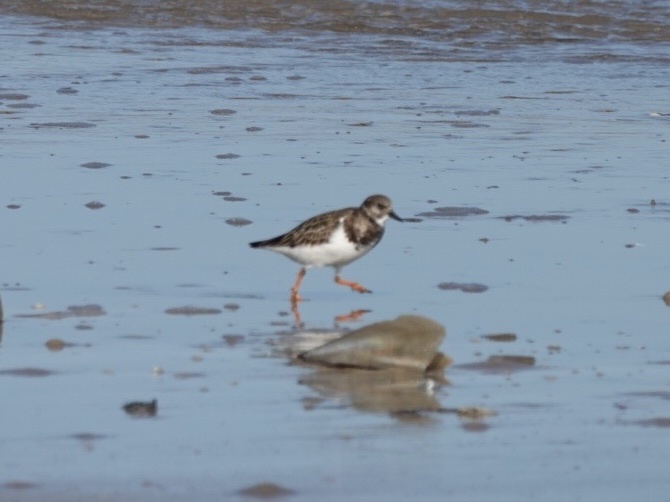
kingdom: Animalia
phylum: Chordata
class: Aves
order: Charadriiformes
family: Scolopacidae
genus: Arenaria
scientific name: Arenaria interpres
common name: Ruddy turnstone
